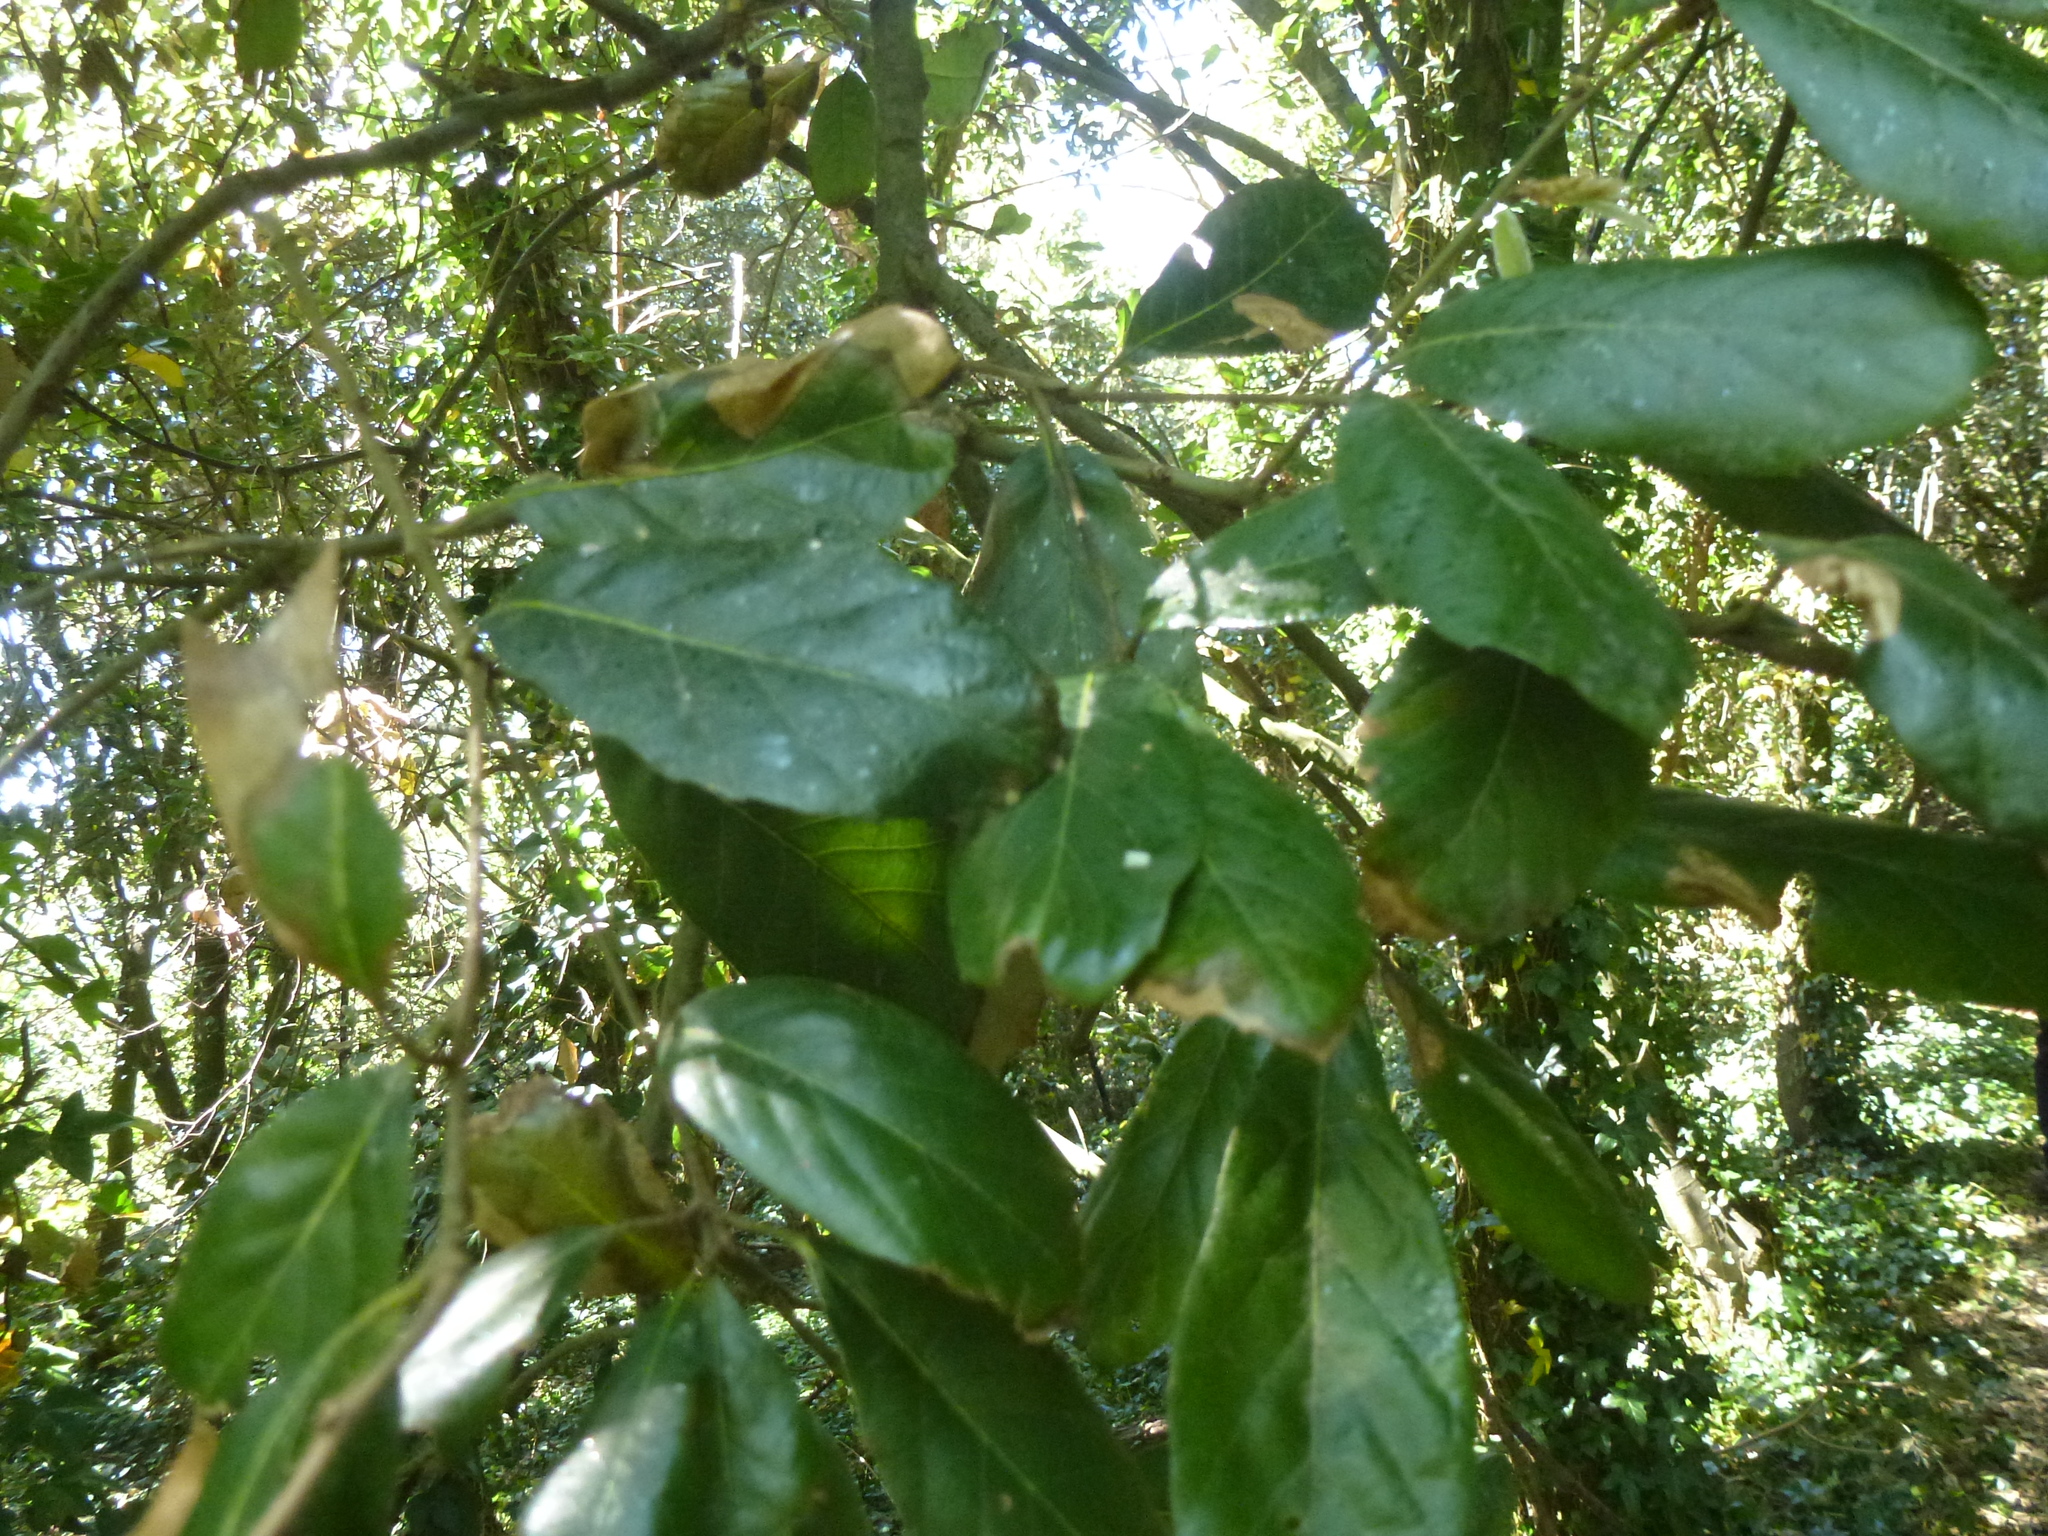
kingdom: Plantae
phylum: Tracheophyta
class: Magnoliopsida
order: Fagales
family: Fagaceae
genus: Quercus
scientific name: Quercus ilex
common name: Evergreen oak
